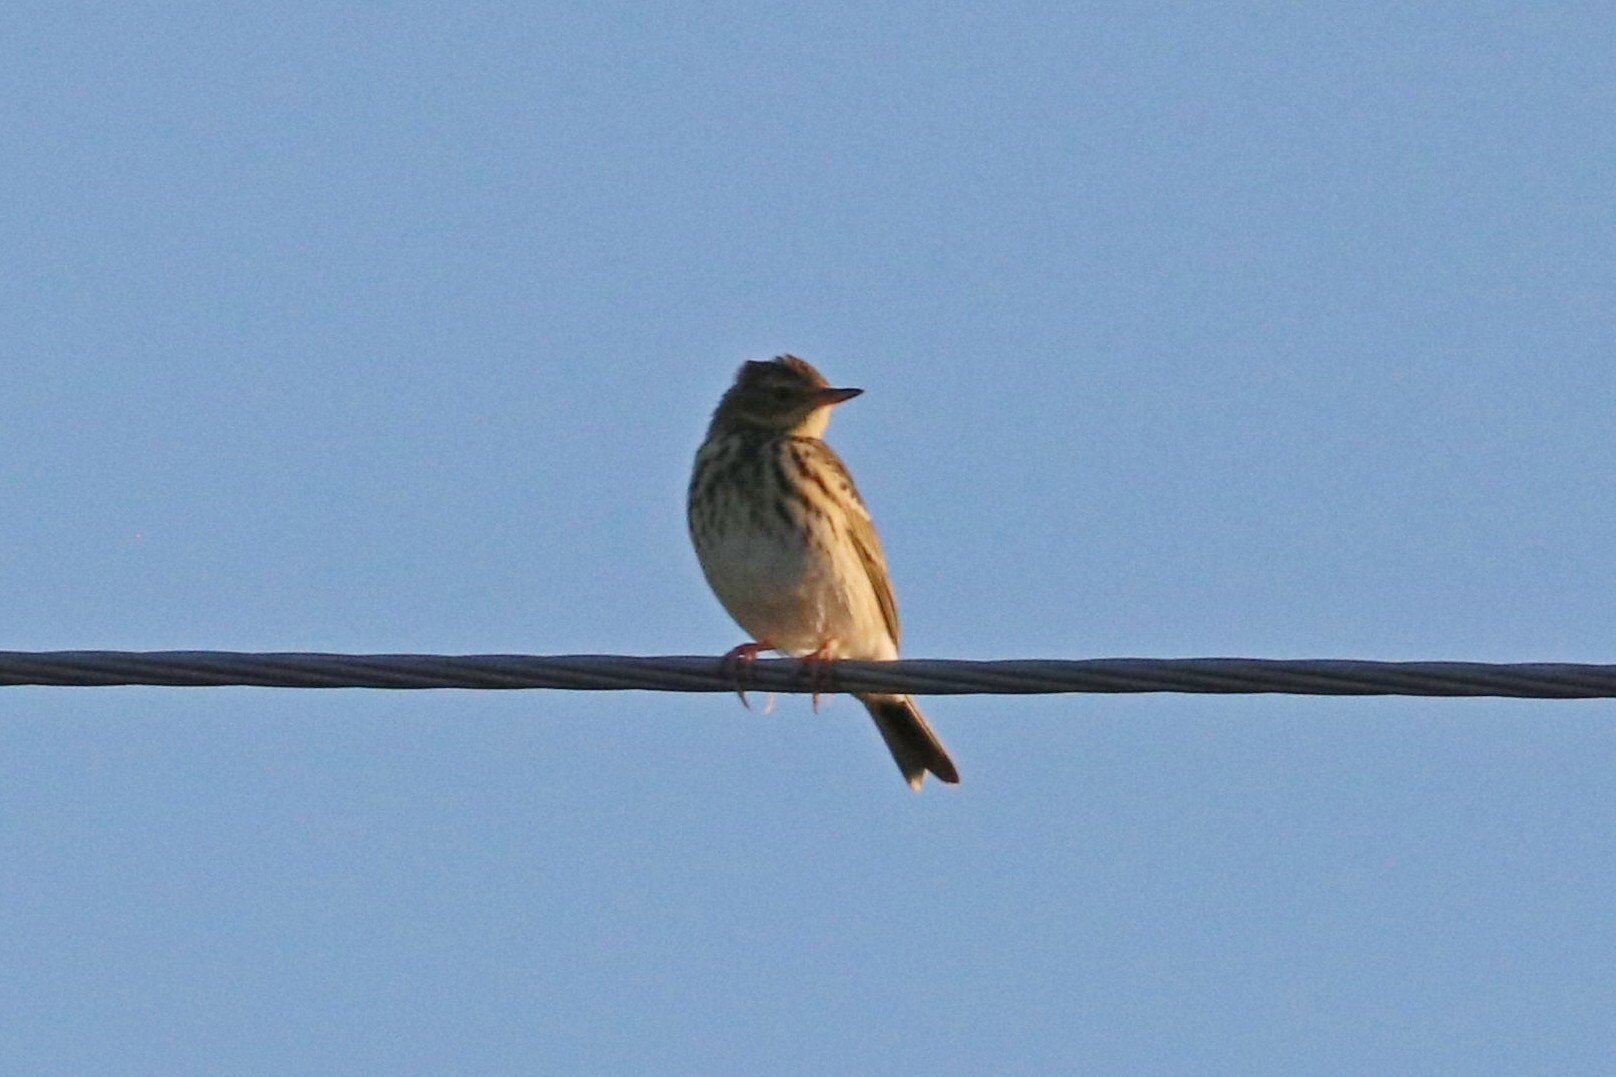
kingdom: Animalia
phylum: Chordata
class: Aves
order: Passeriformes
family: Motacillidae
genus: Anthus
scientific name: Anthus trivialis
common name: Tree pipit
